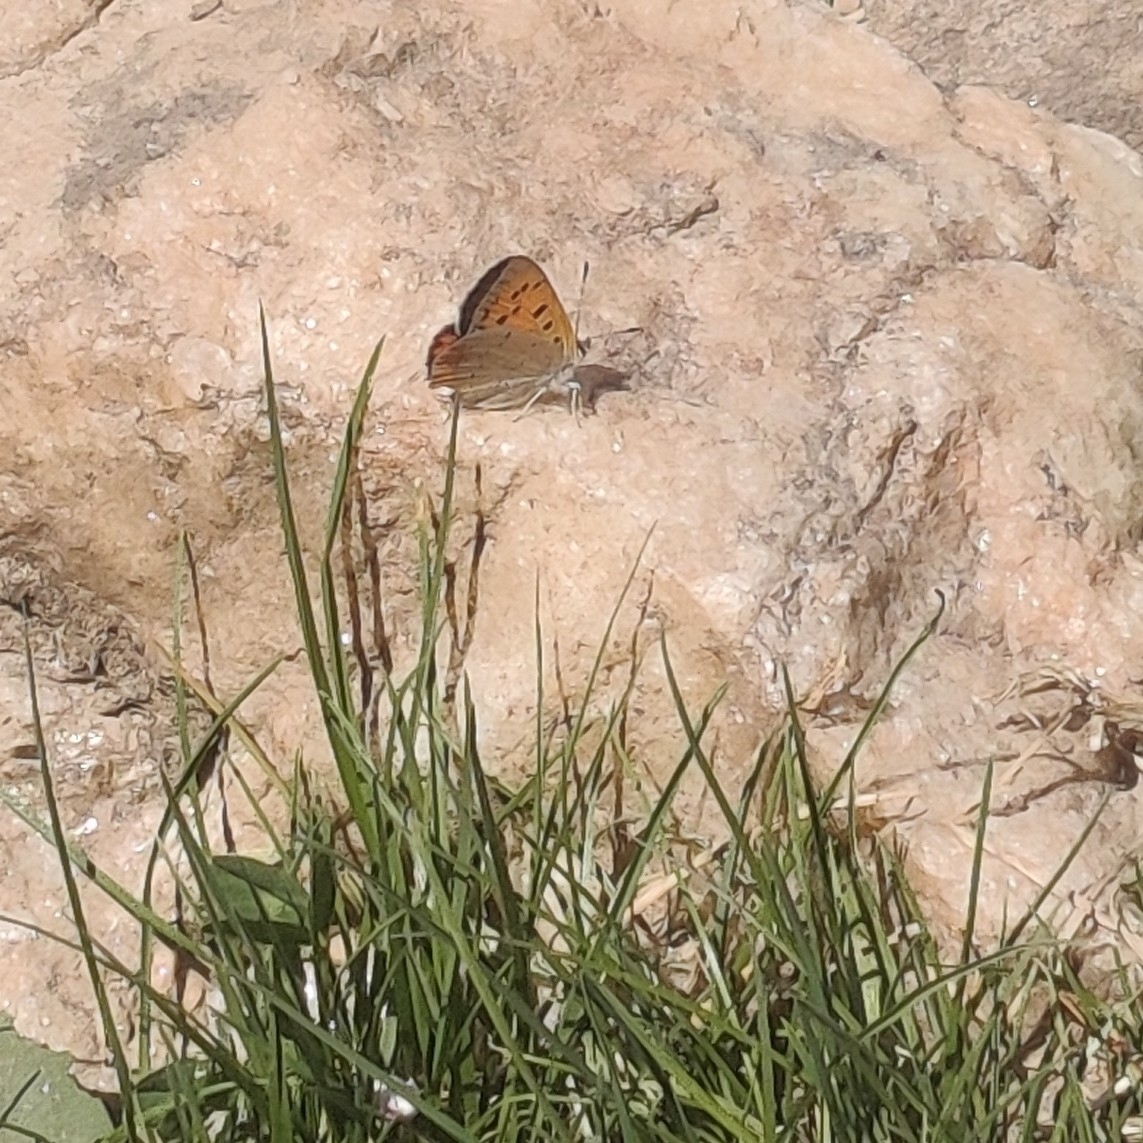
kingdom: Animalia
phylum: Arthropoda
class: Insecta
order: Lepidoptera
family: Lycaenidae
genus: Lycaena
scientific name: Lycaena phlaeas
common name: Small copper
